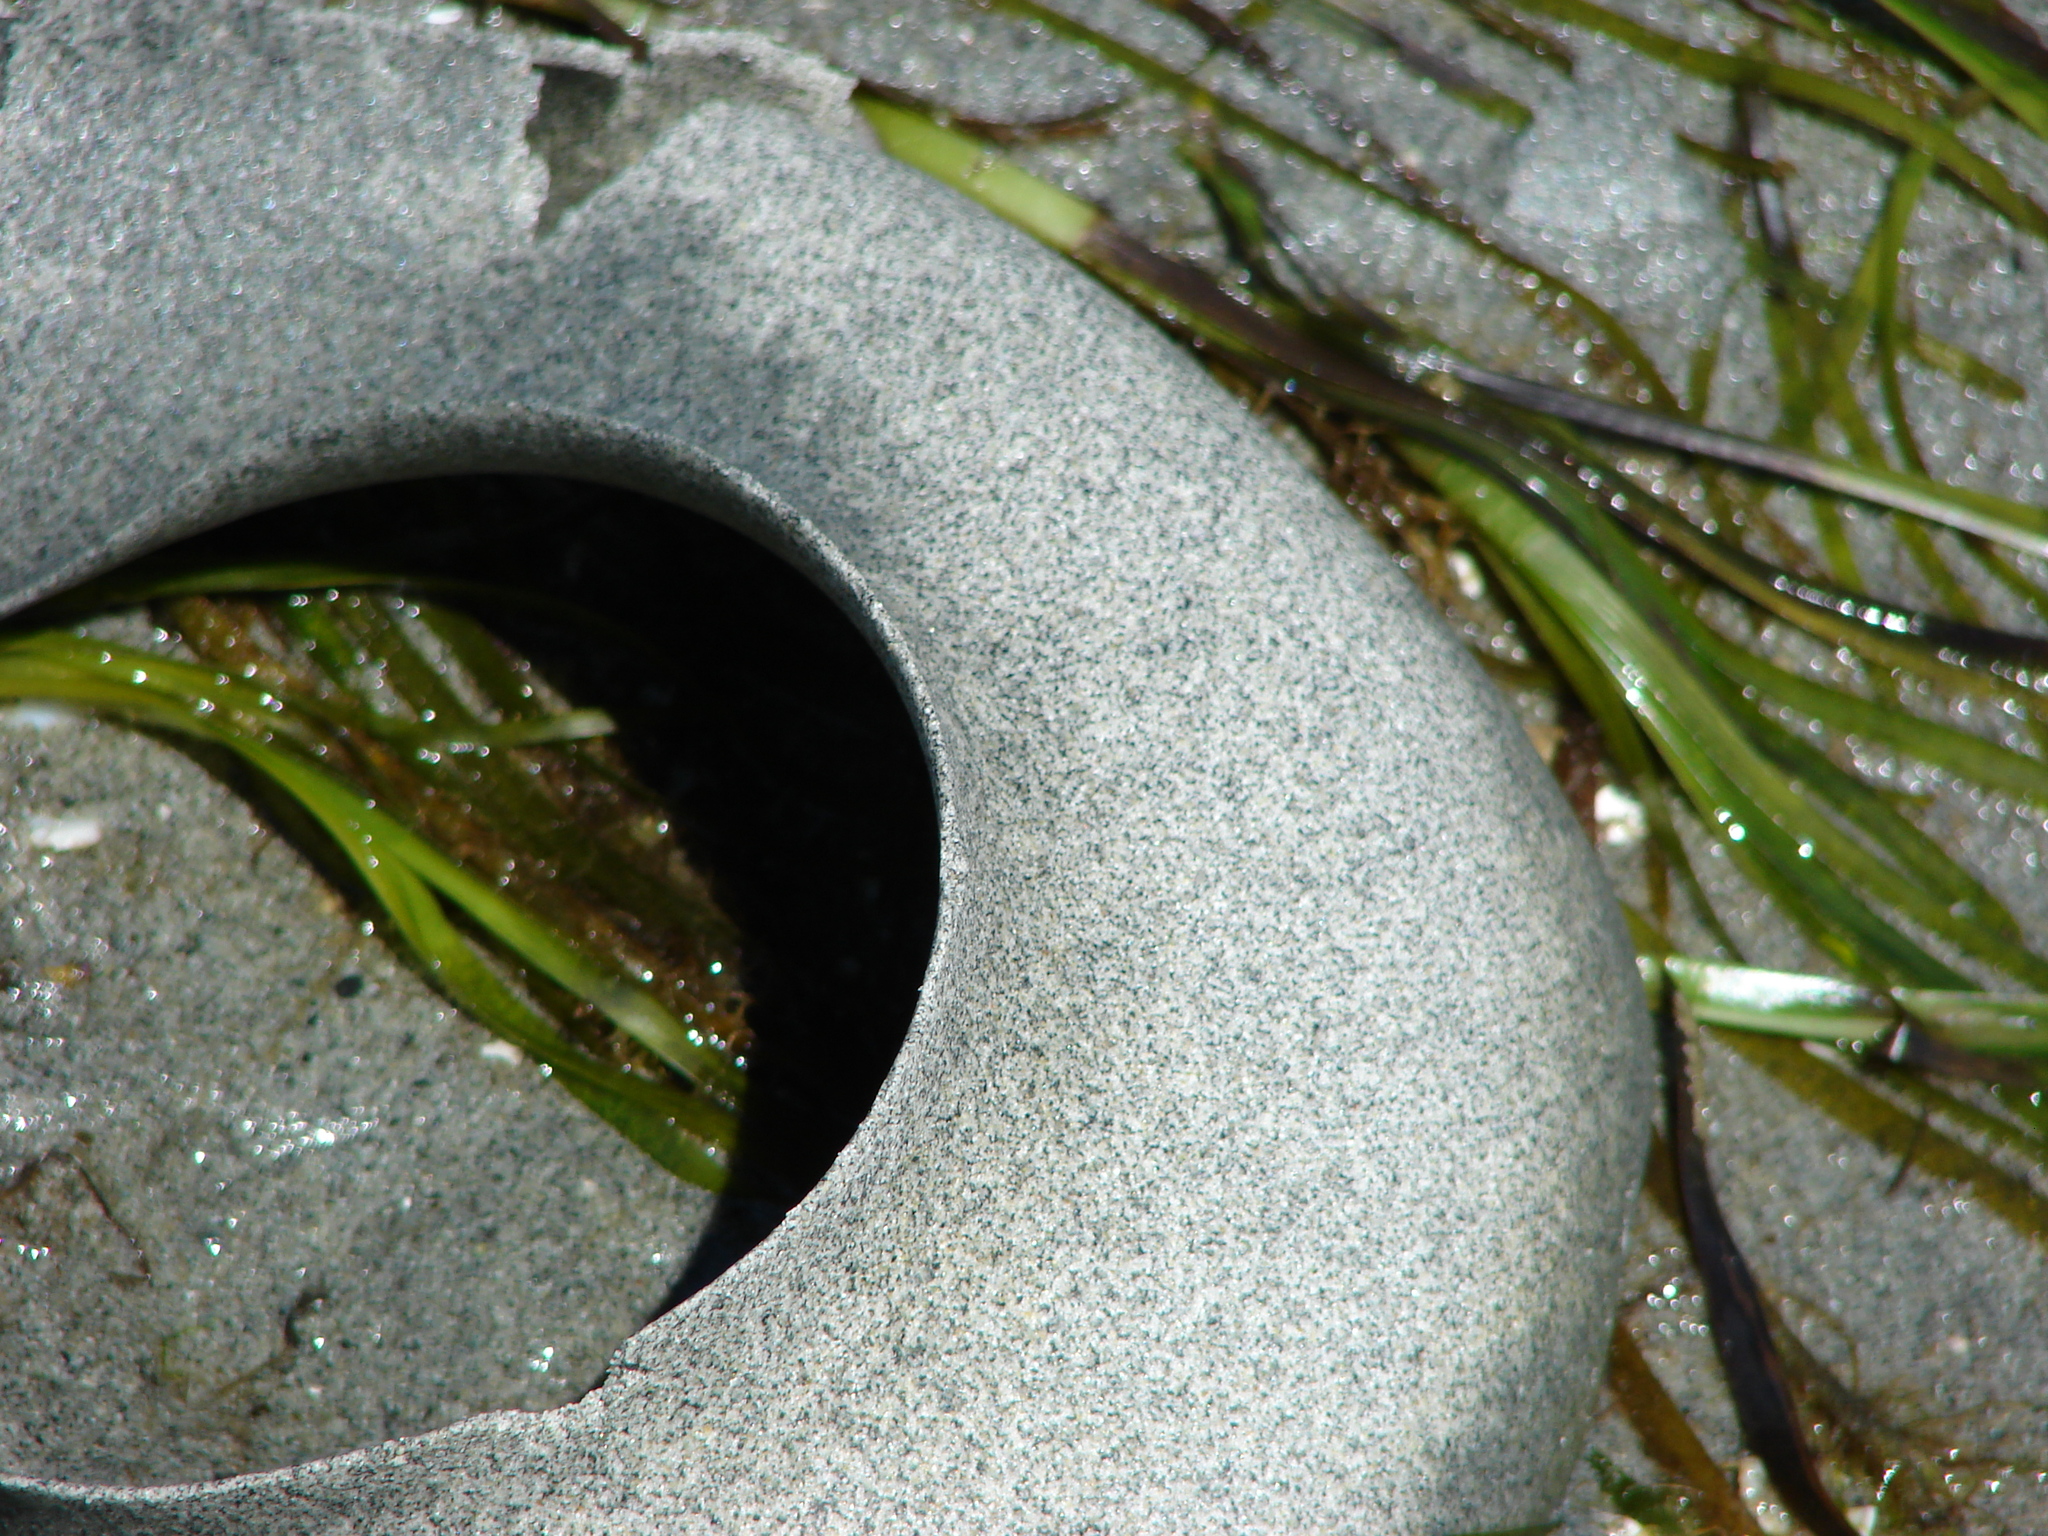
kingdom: Animalia
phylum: Mollusca
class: Gastropoda
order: Littorinimorpha
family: Naticidae
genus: Neverita
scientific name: Neverita lewisii
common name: Lewis' moonsnail
